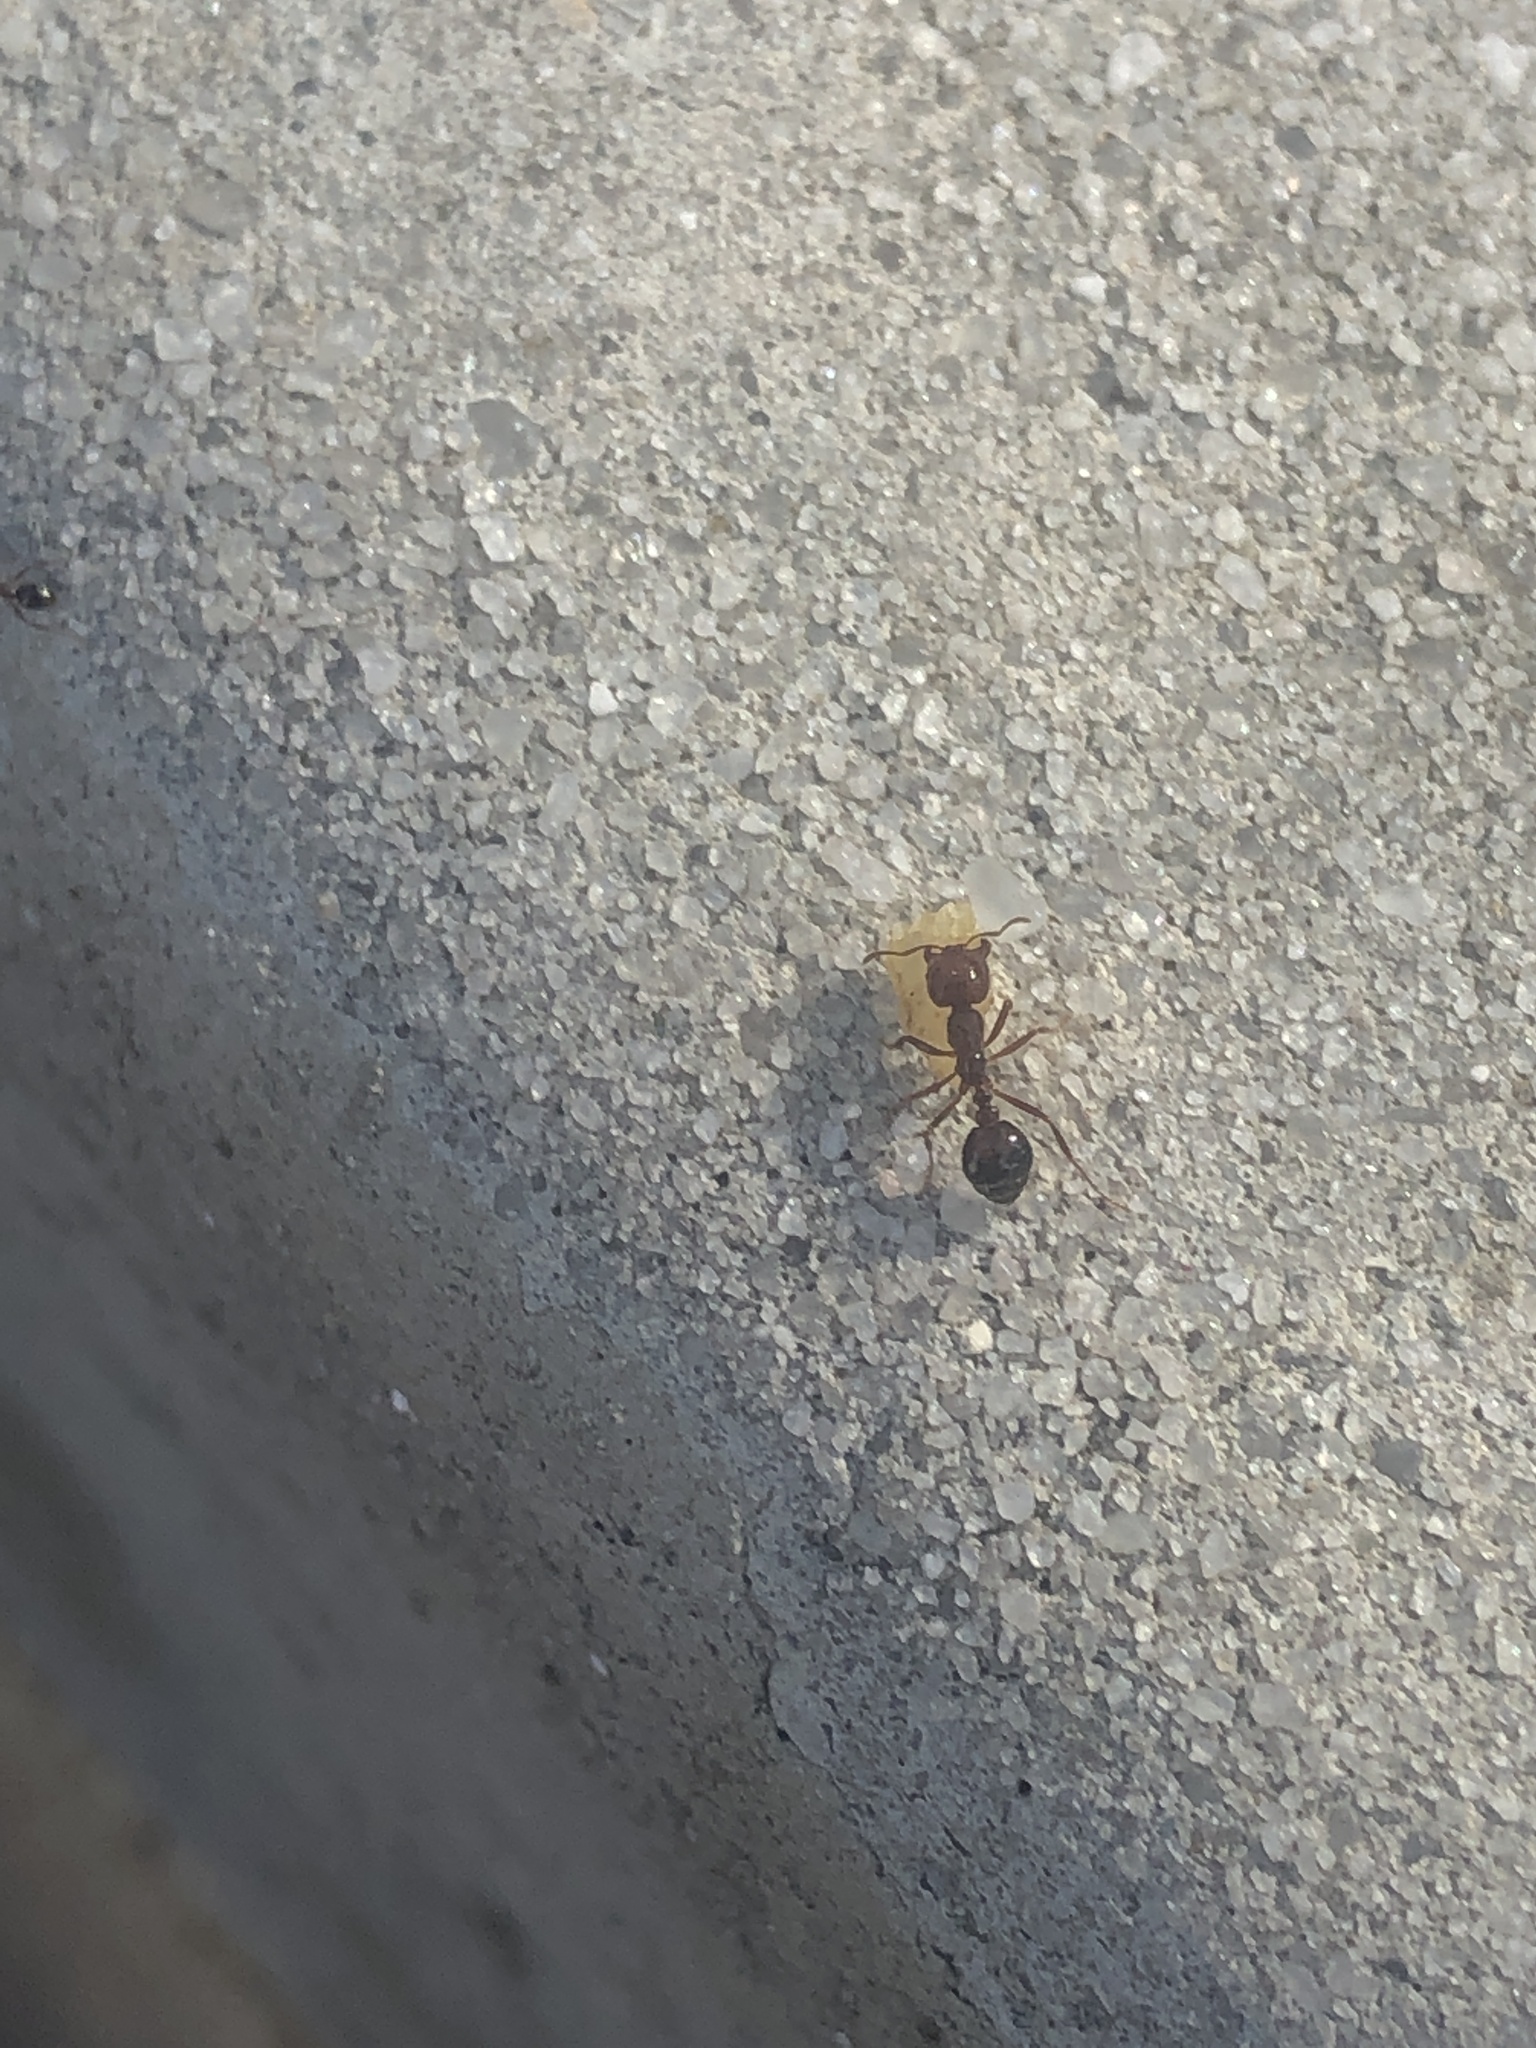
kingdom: Animalia
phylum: Arthropoda
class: Insecta
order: Hymenoptera
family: Formicidae
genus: Solenopsis
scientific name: Solenopsis invicta
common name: Red imported fire ant
